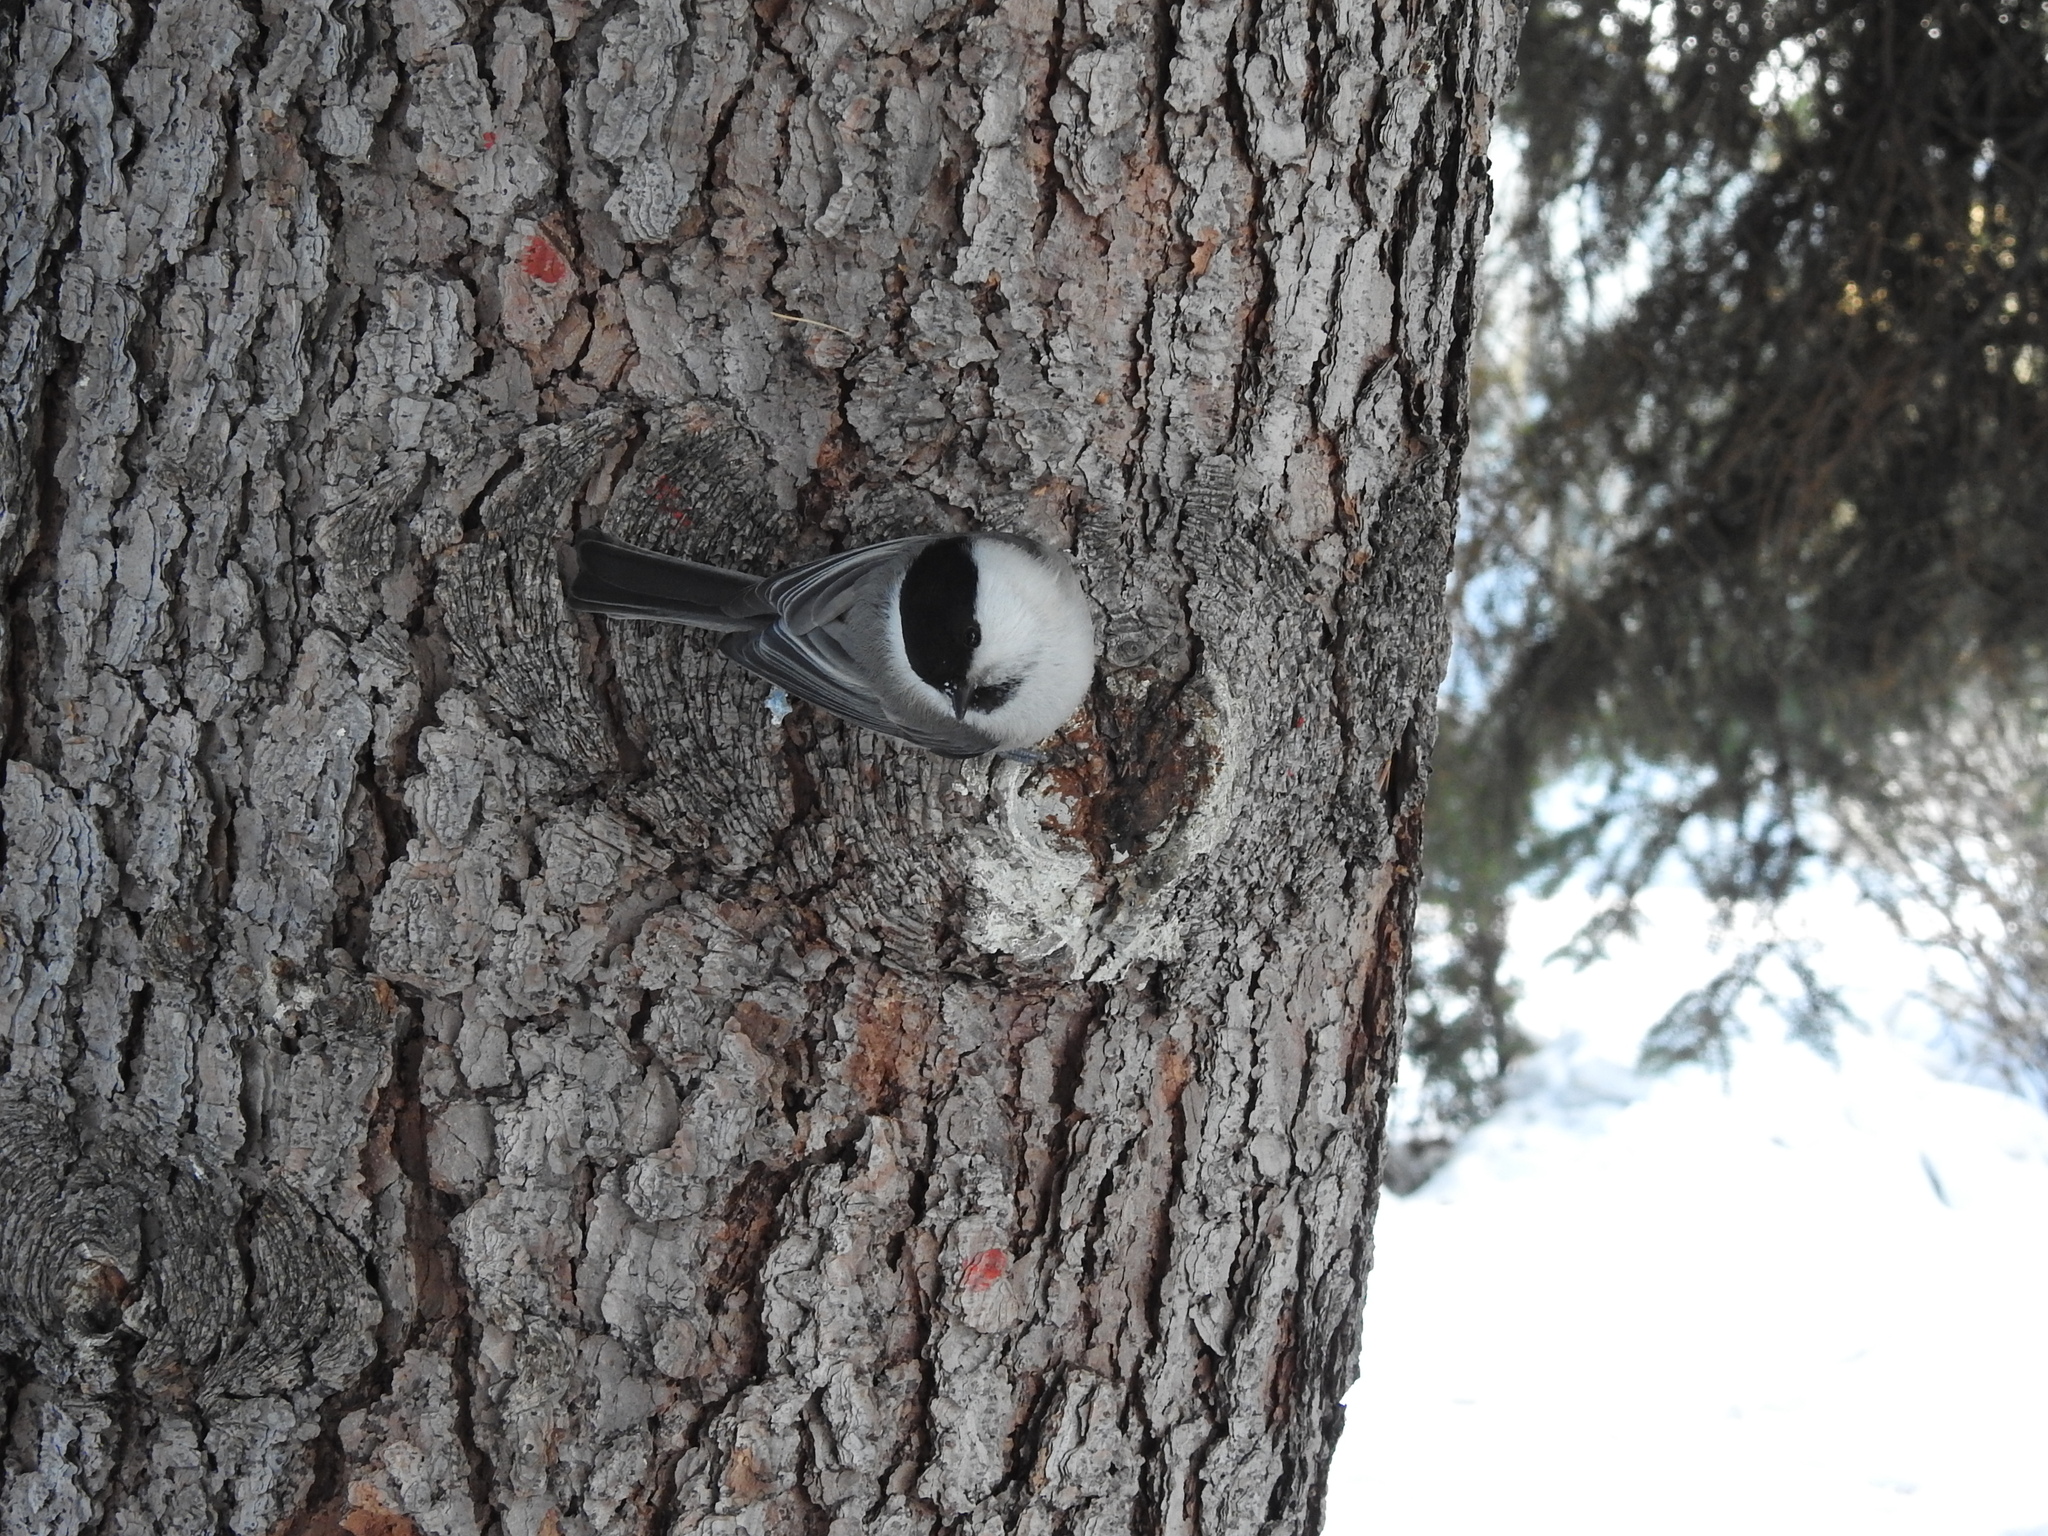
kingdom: Animalia
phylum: Chordata
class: Aves
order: Passeriformes
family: Paridae
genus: Poecile
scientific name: Poecile montanus
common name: Willow tit
